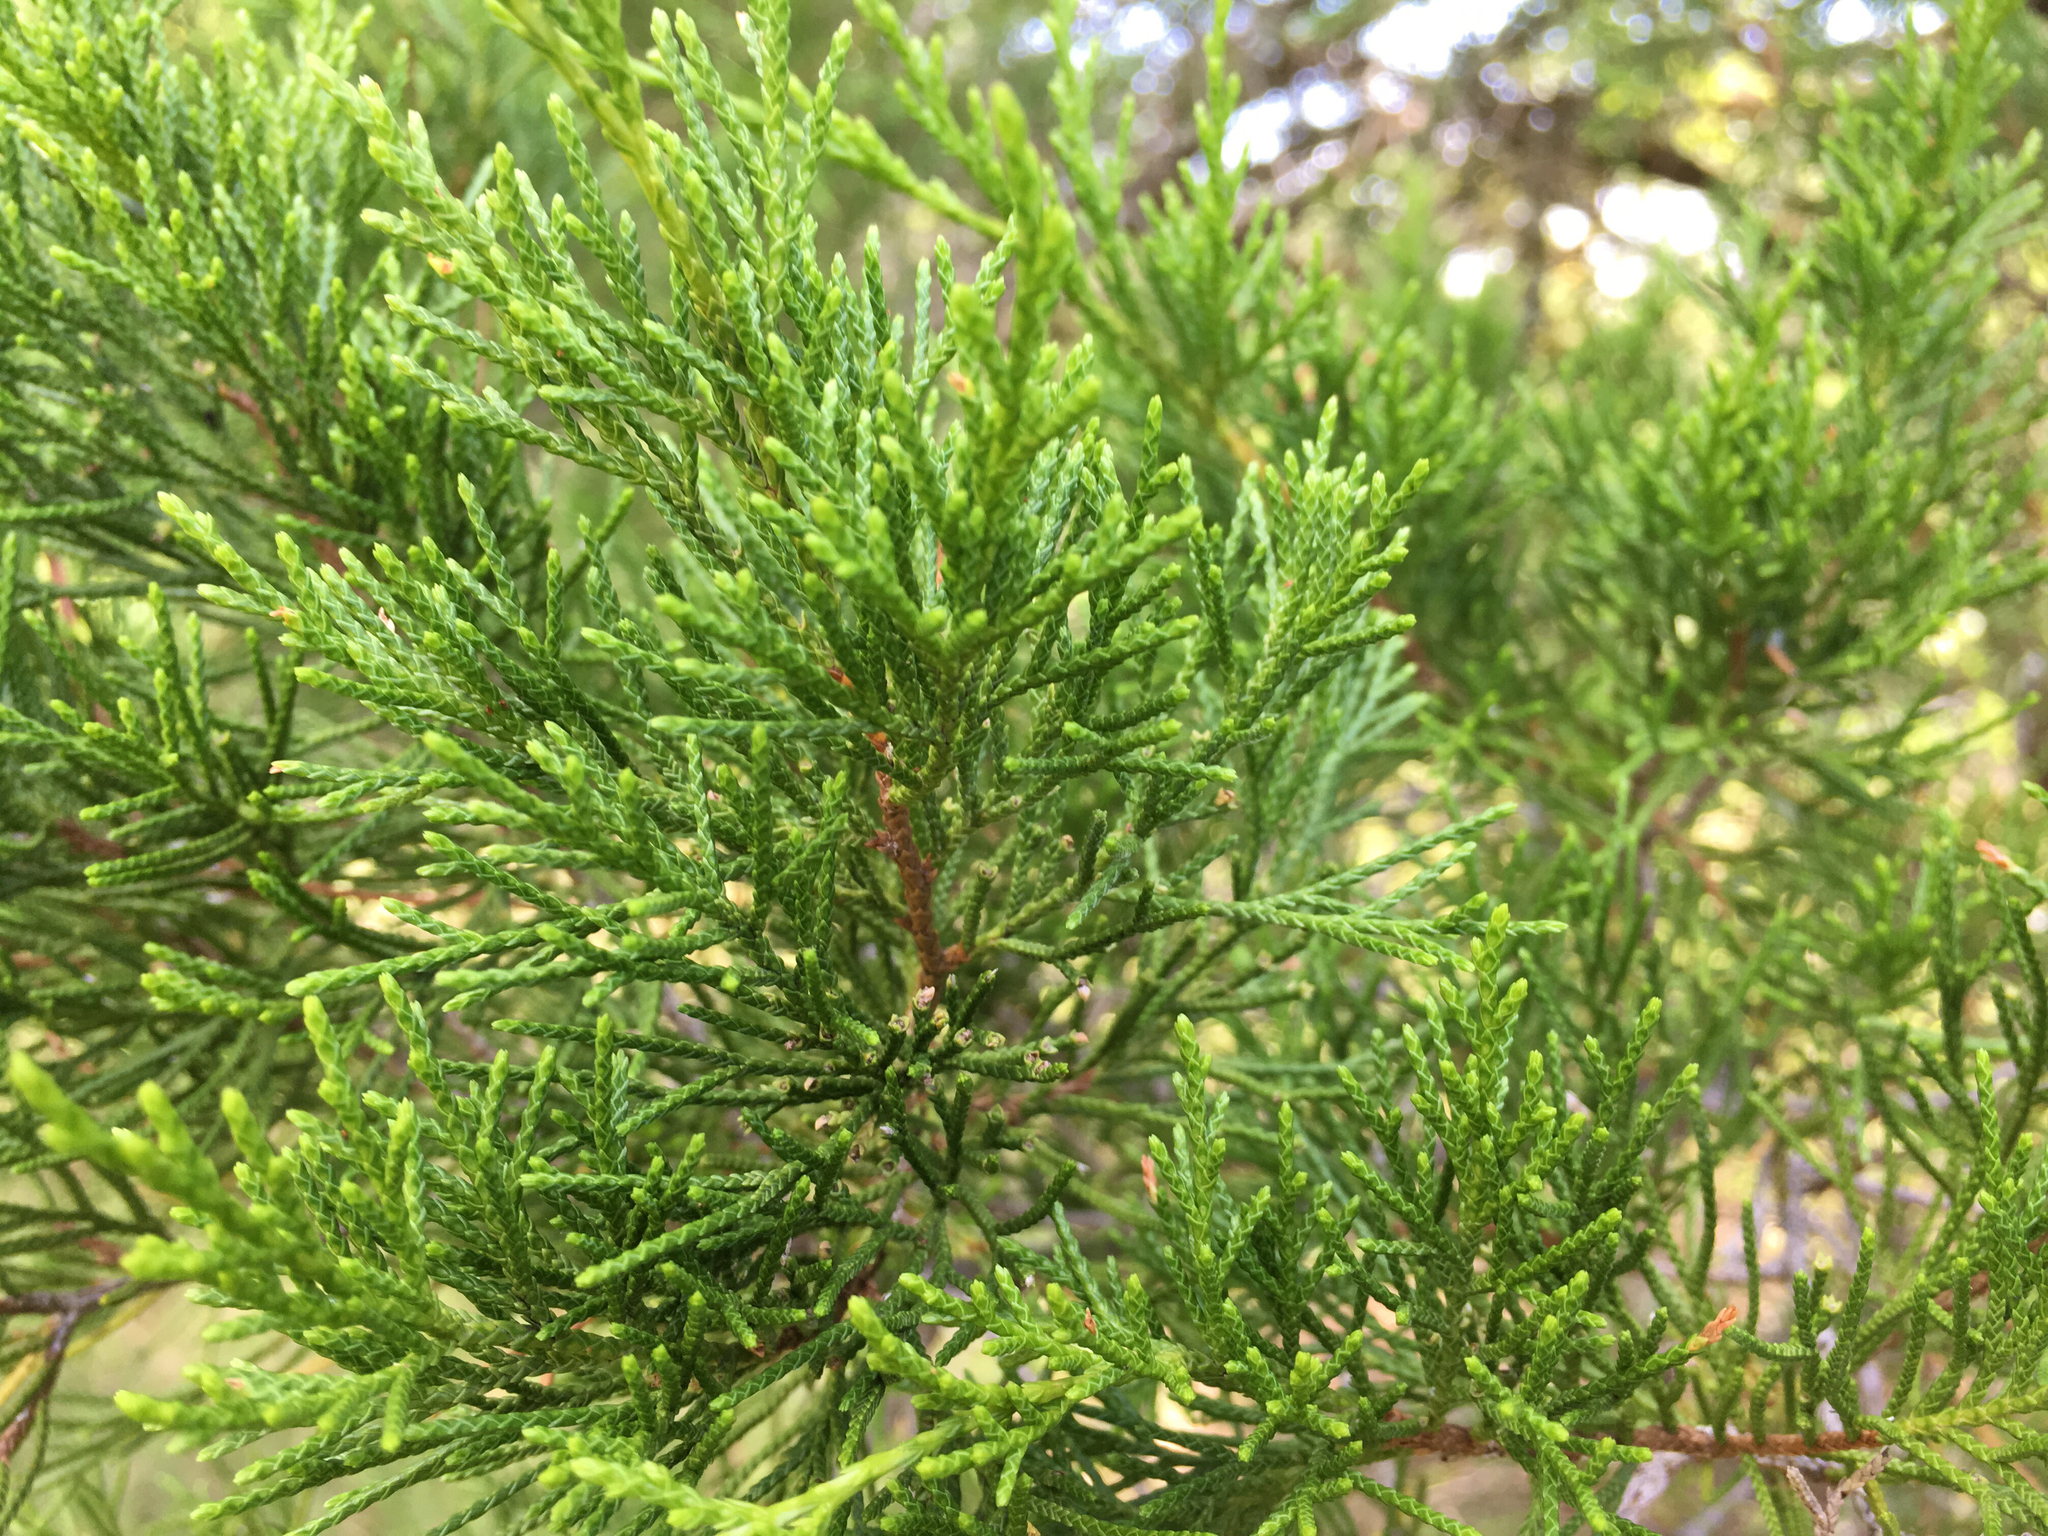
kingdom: Plantae
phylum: Tracheophyta
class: Pinopsida
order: Pinales
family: Cupressaceae
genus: Juniperus
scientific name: Juniperus virginiana
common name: Red juniper
